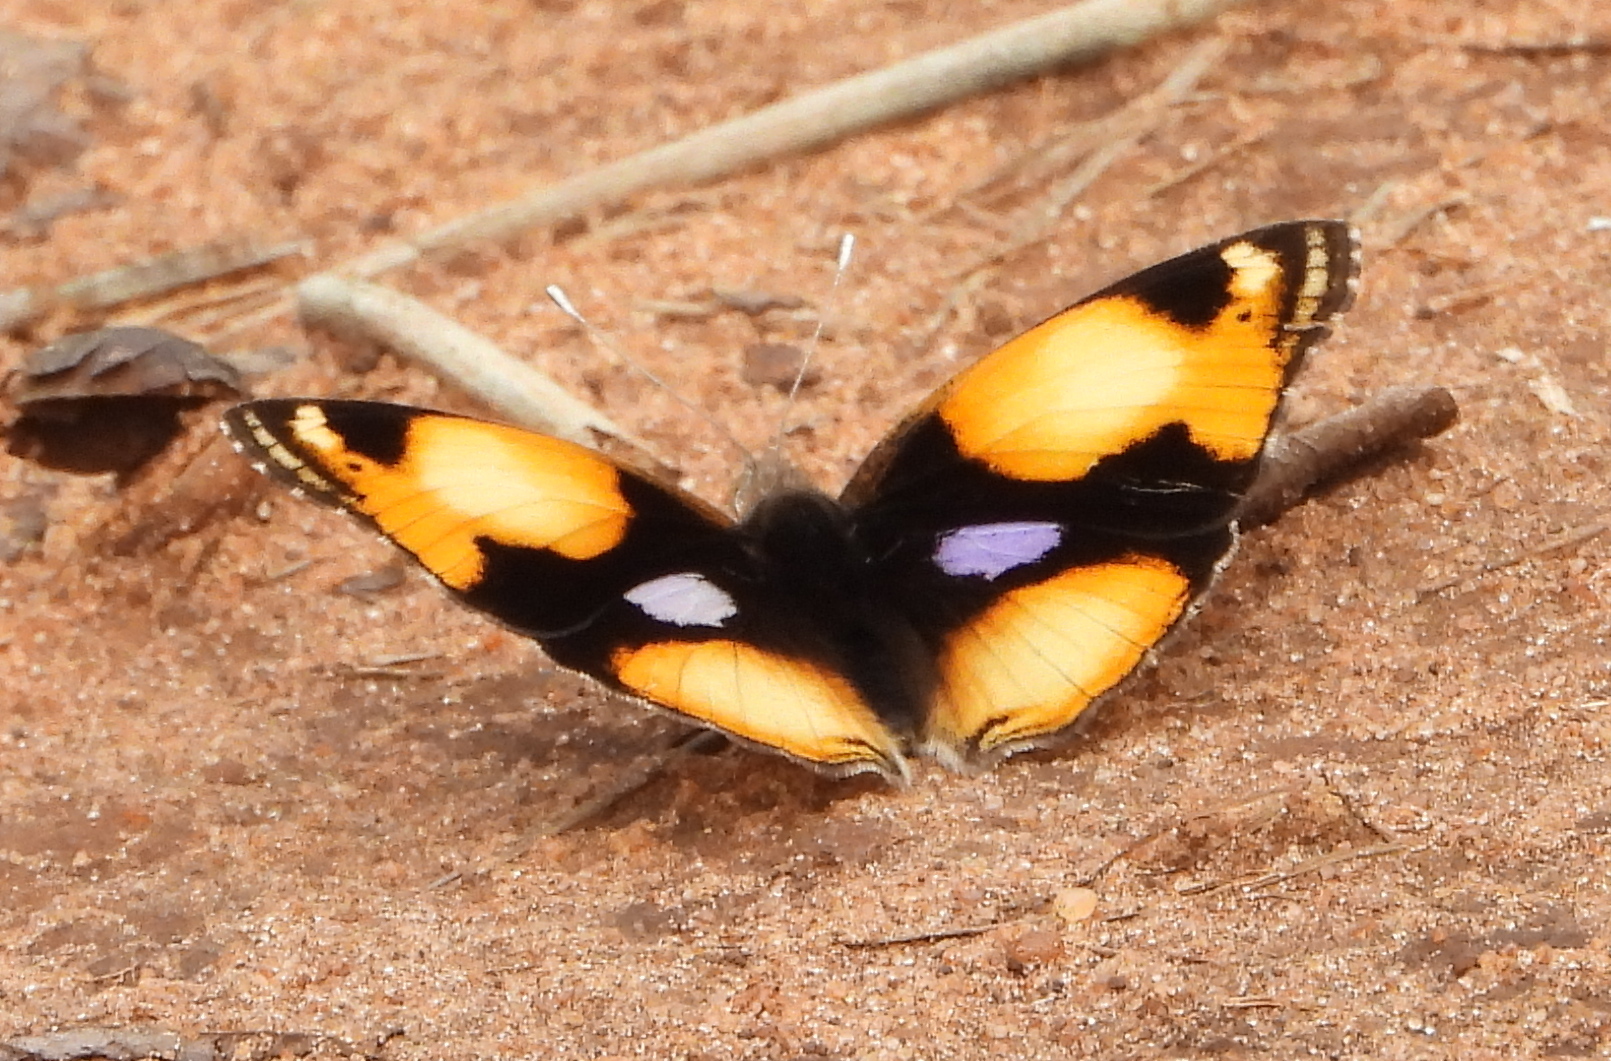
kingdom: Animalia
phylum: Arthropoda
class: Insecta
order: Lepidoptera
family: Nymphalidae
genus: Junonia
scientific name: Junonia hierta
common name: Yellow pansy
